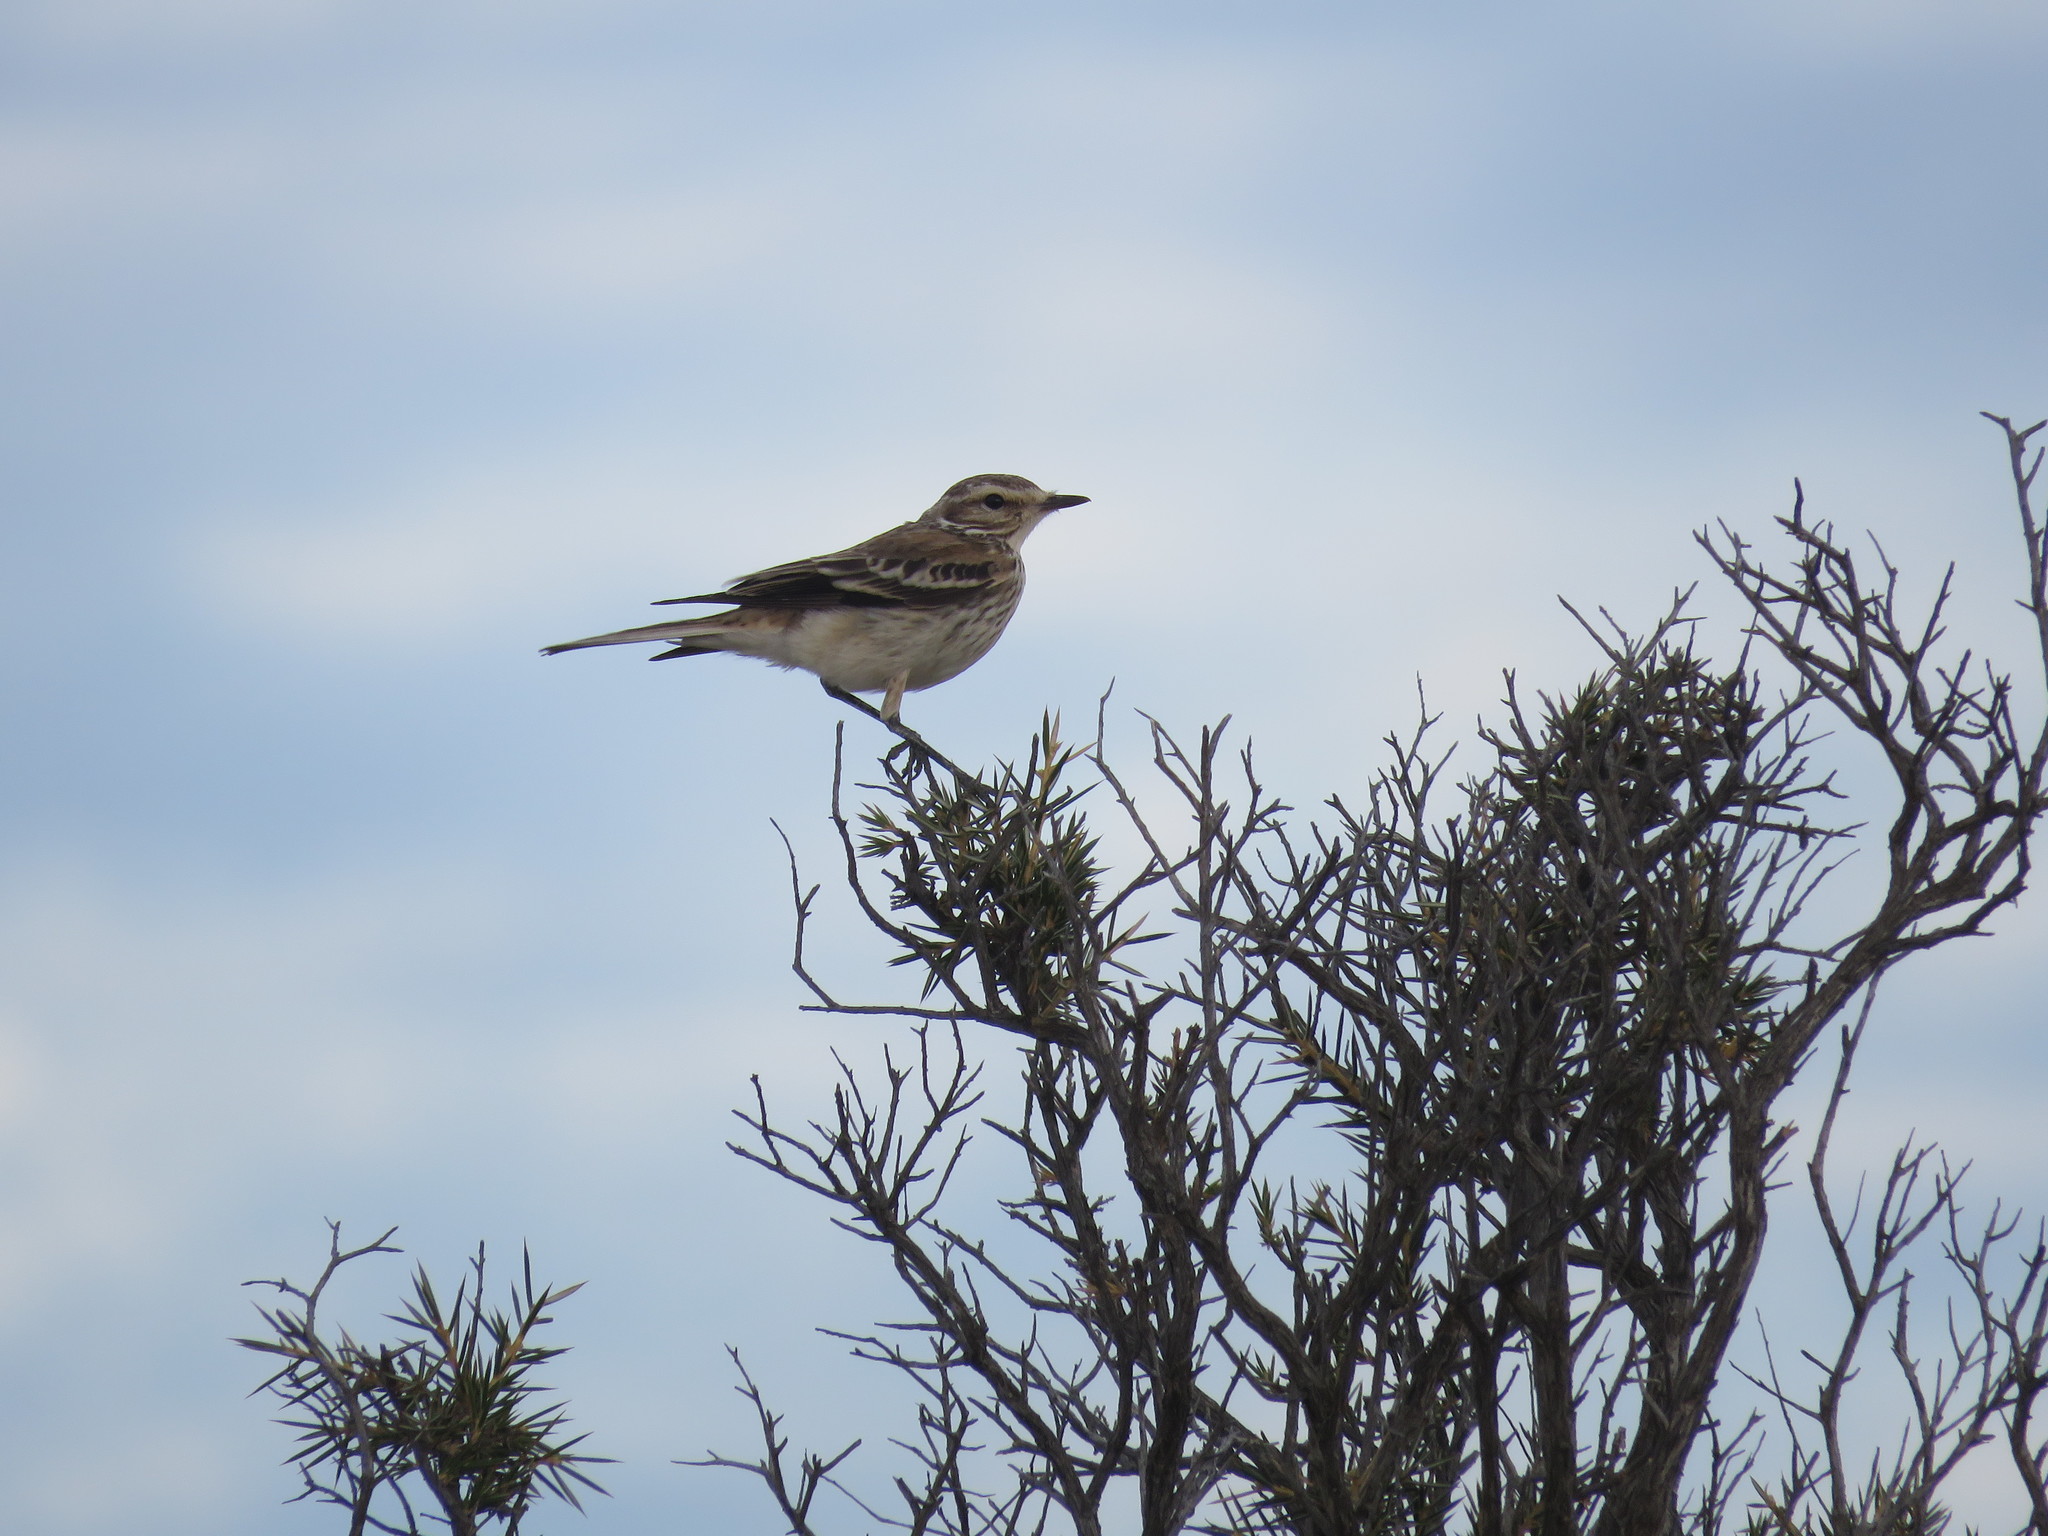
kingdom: Animalia
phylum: Chordata
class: Aves
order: Passeriformes
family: Tyrannidae
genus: Xolmis
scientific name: Xolmis rubetra
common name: Rusty-backed monjita
